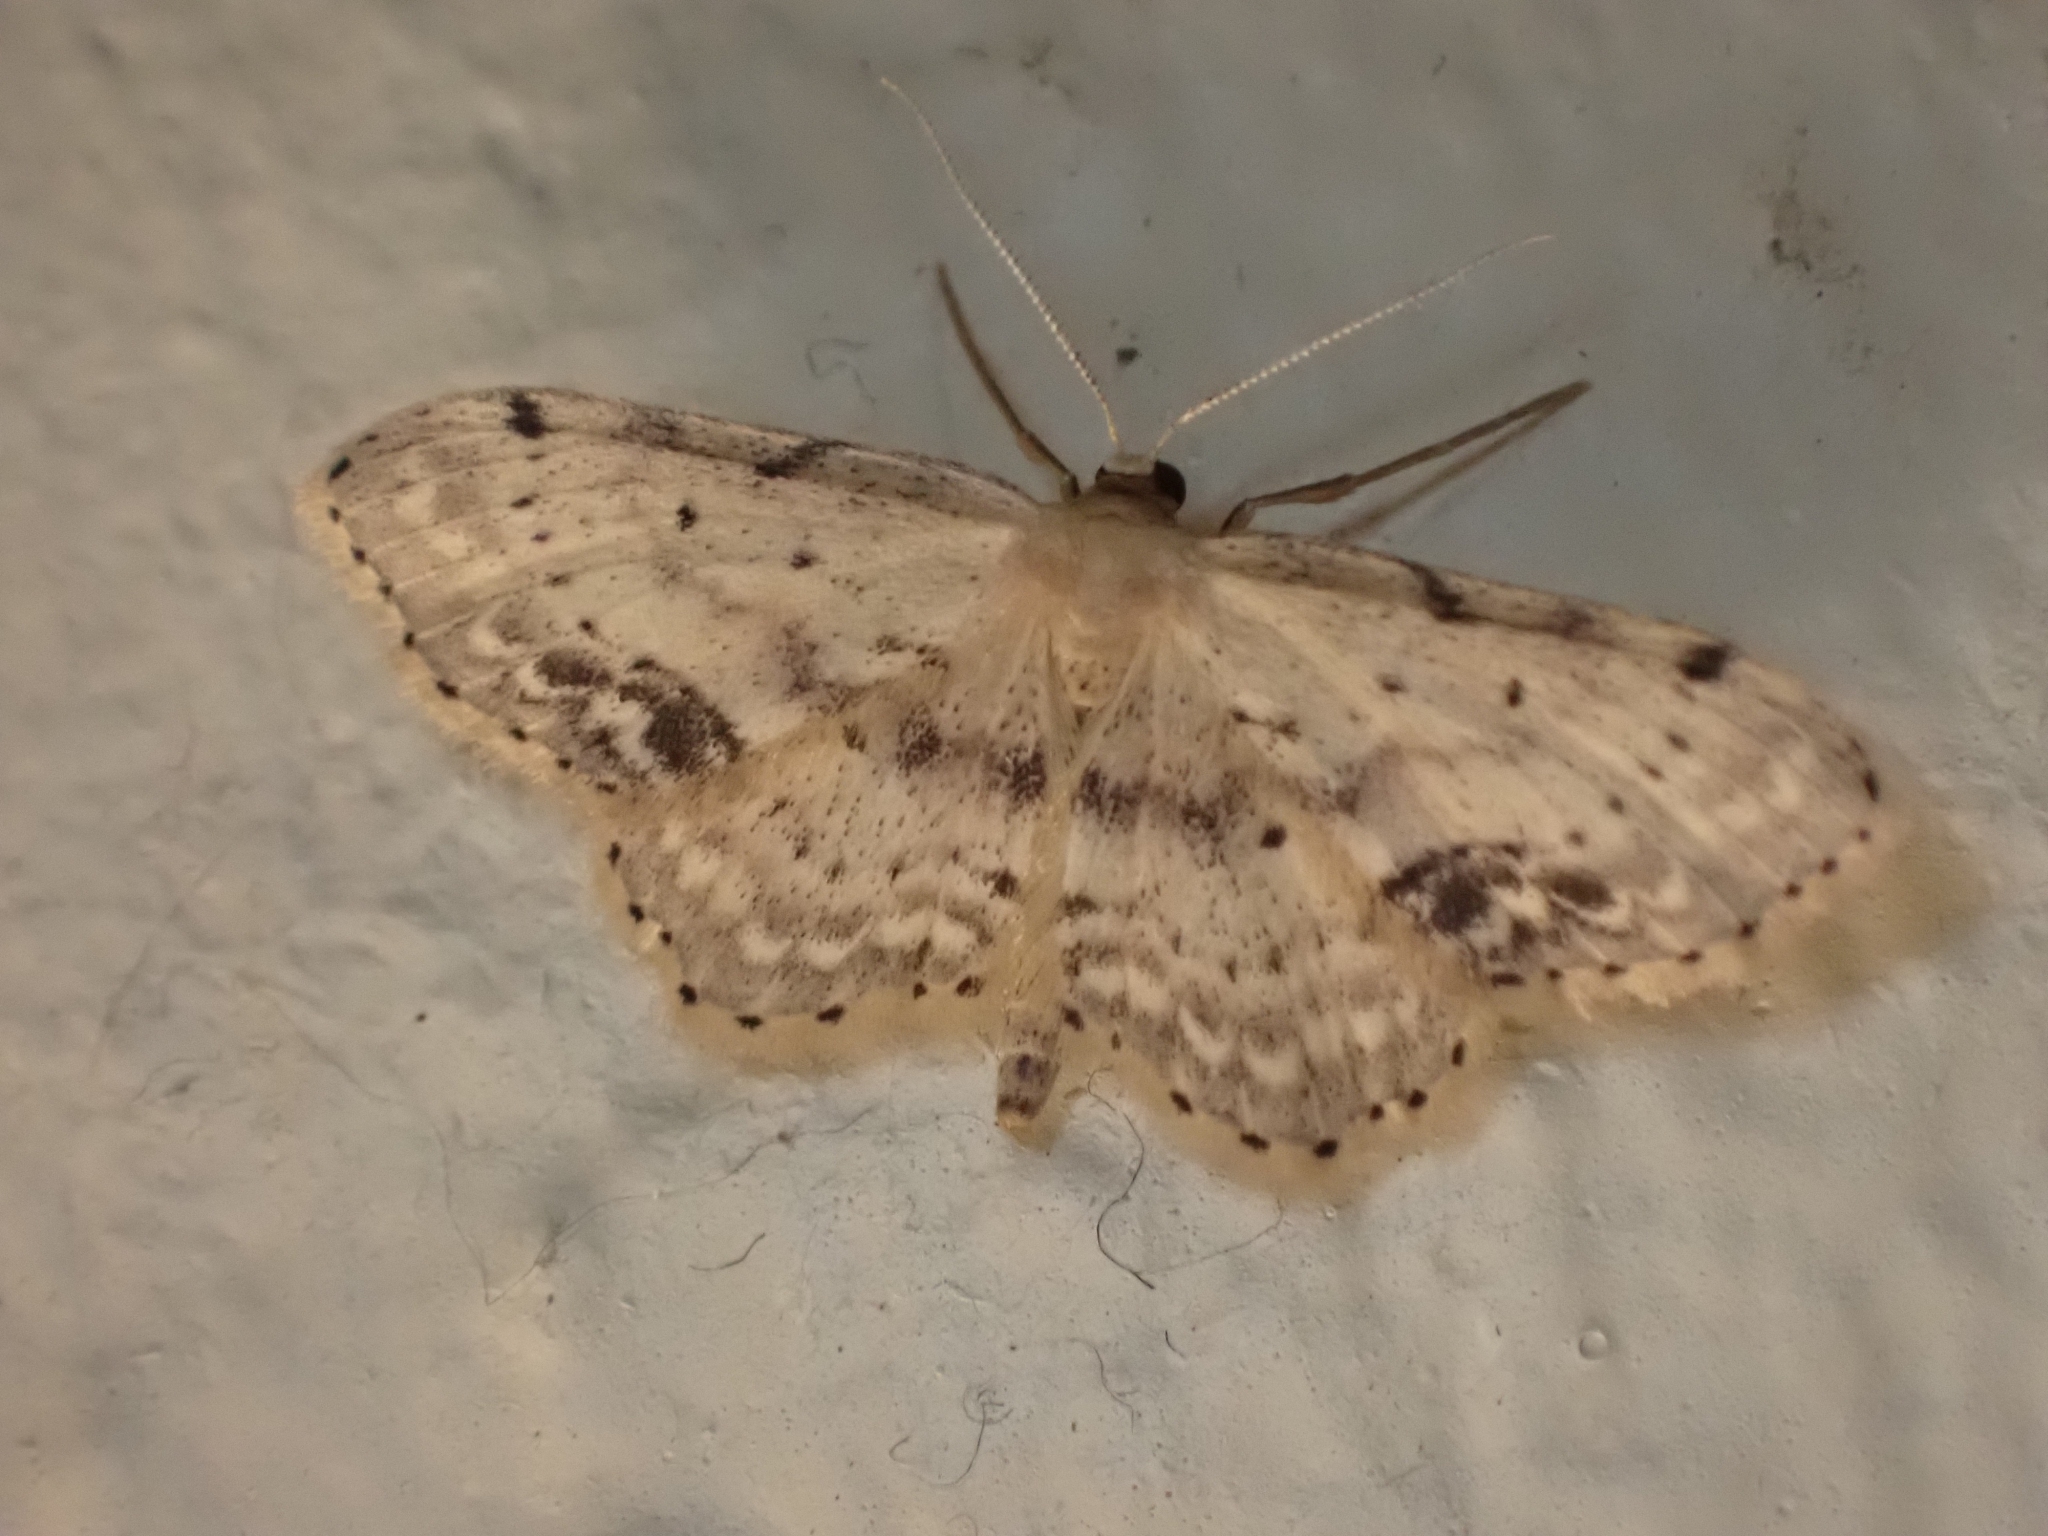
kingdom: Animalia
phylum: Arthropoda
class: Insecta
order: Lepidoptera
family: Geometridae
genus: Idaea
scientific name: Idaea dimidiata
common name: Single-dotted wave
